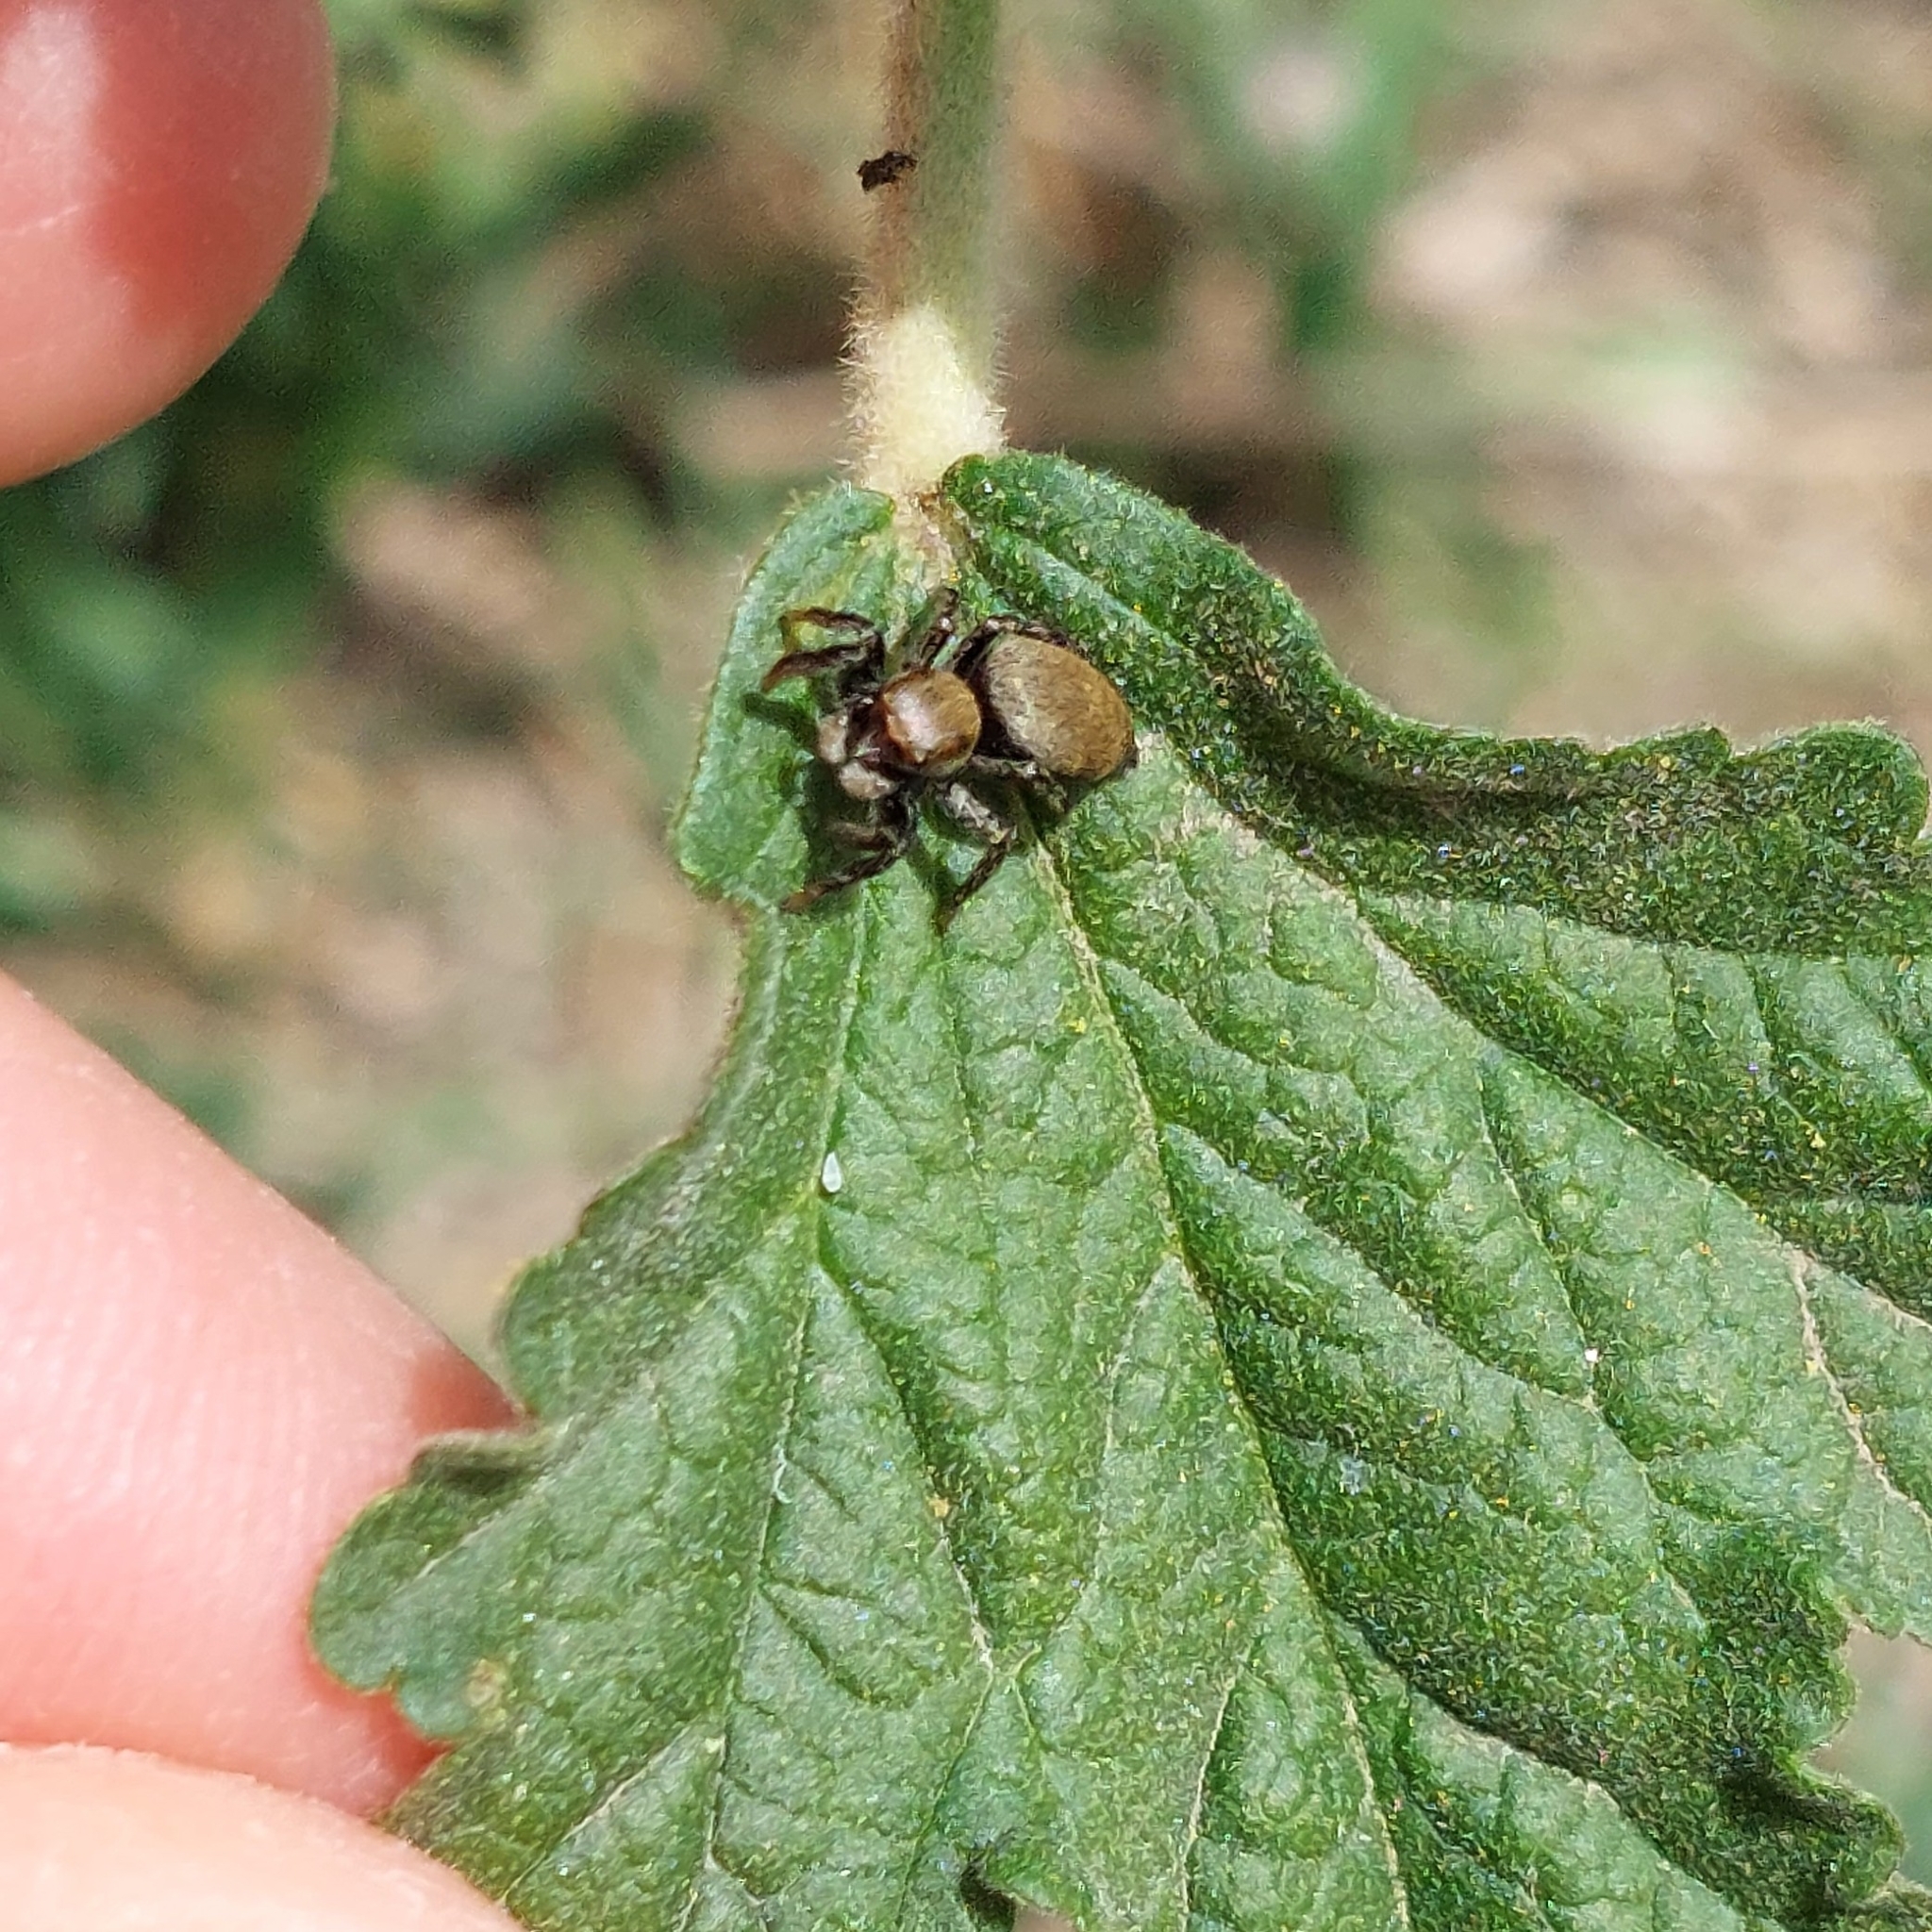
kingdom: Animalia
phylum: Arthropoda
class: Arachnida
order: Araneae
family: Salticidae
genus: Phiale
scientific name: Phiale roburifoliata
